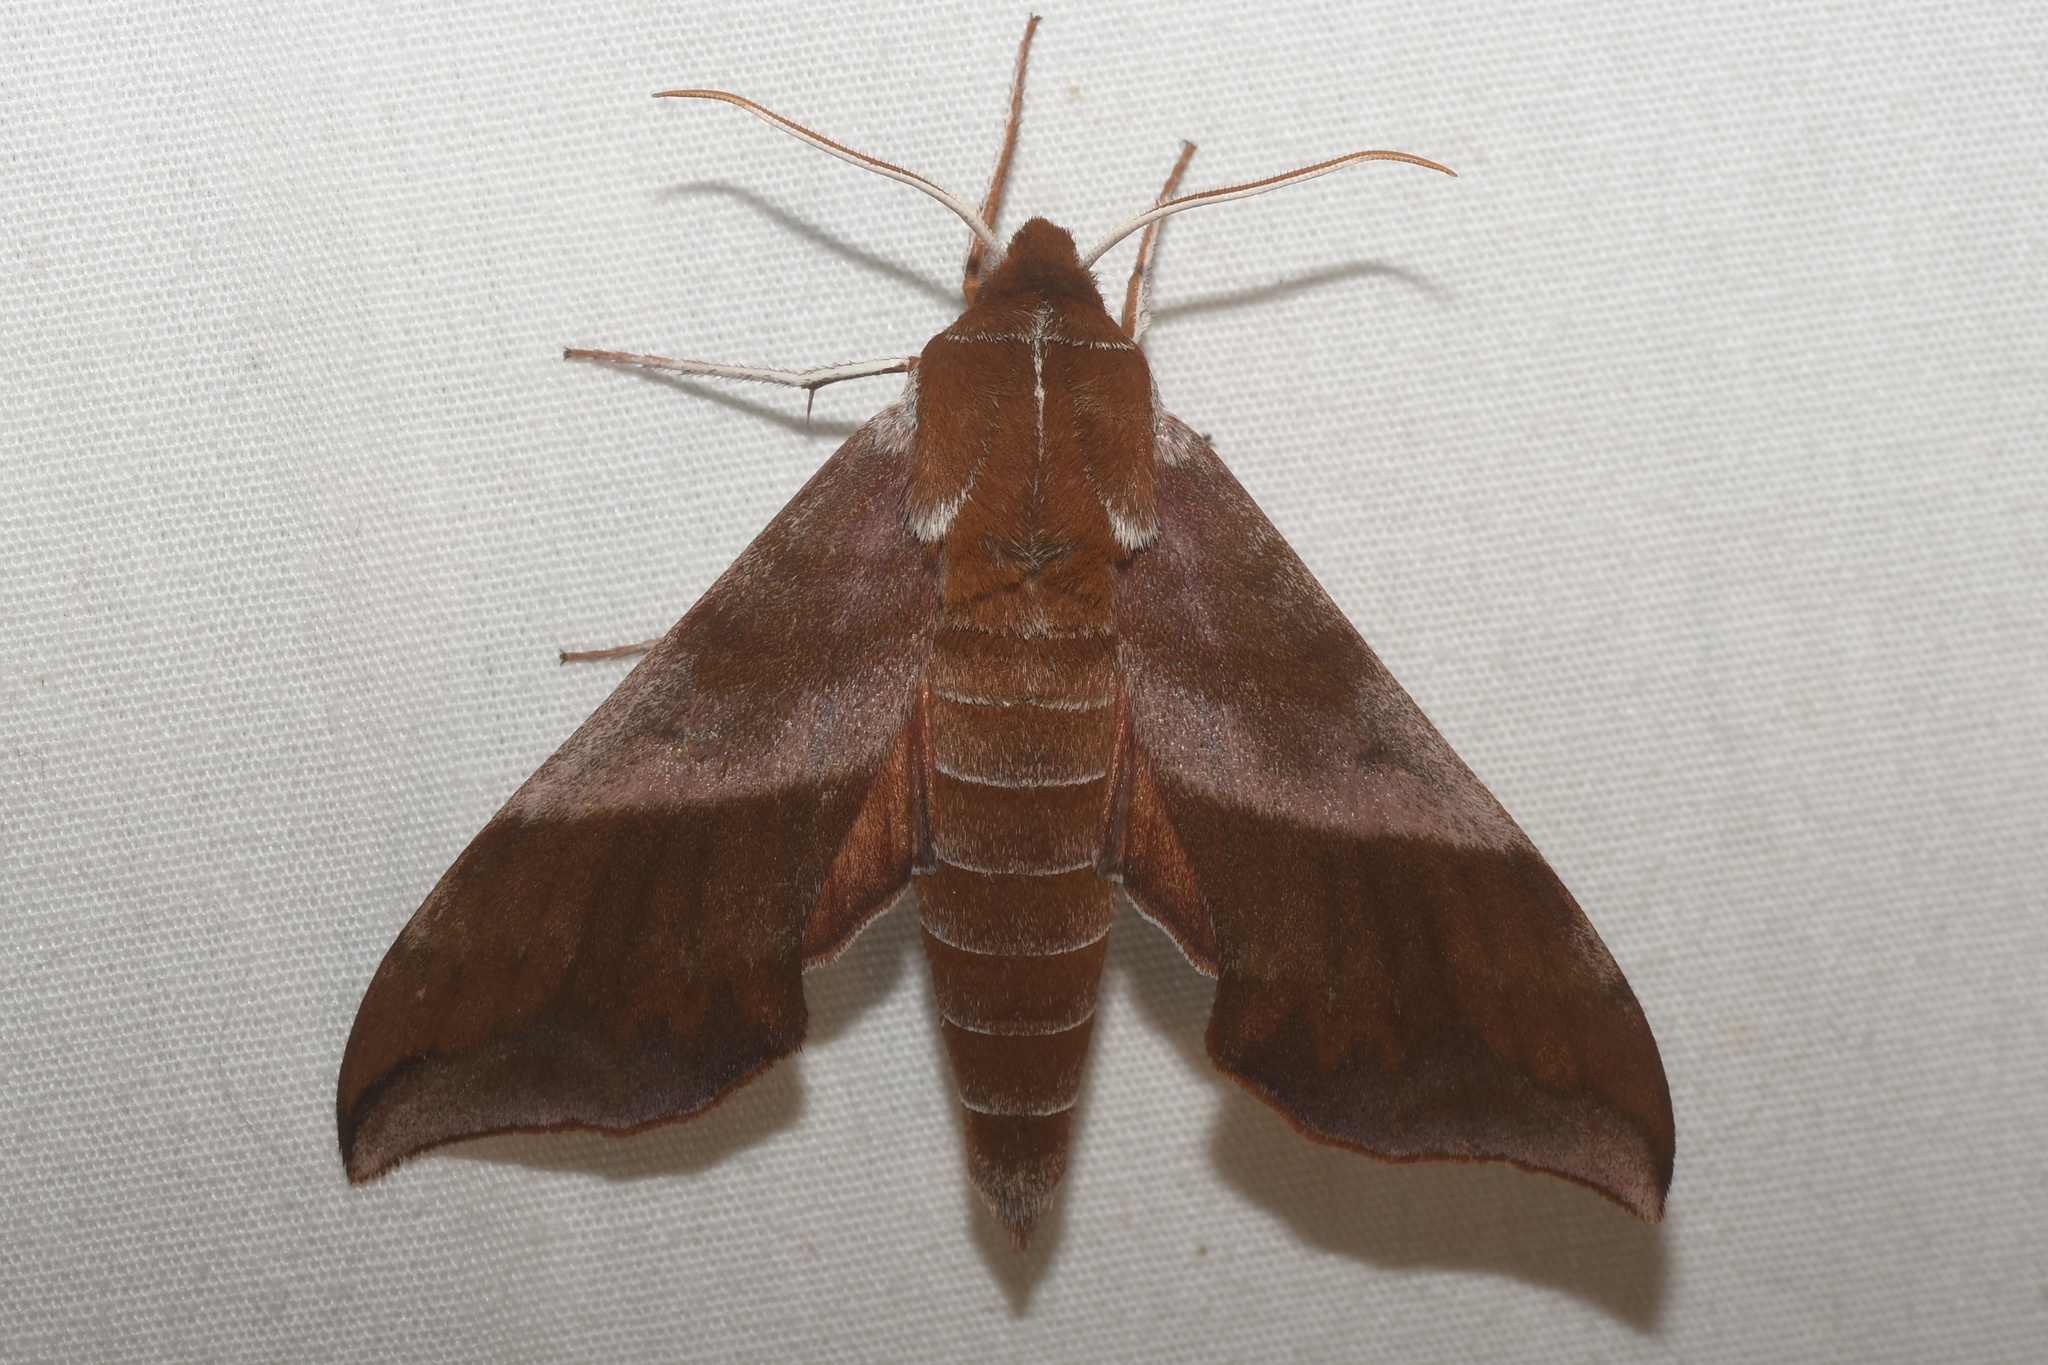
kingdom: Animalia
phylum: Arthropoda
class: Insecta
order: Lepidoptera
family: Sphingidae
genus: Darapsa
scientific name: Darapsa choerilus
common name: Azalea sphinx
